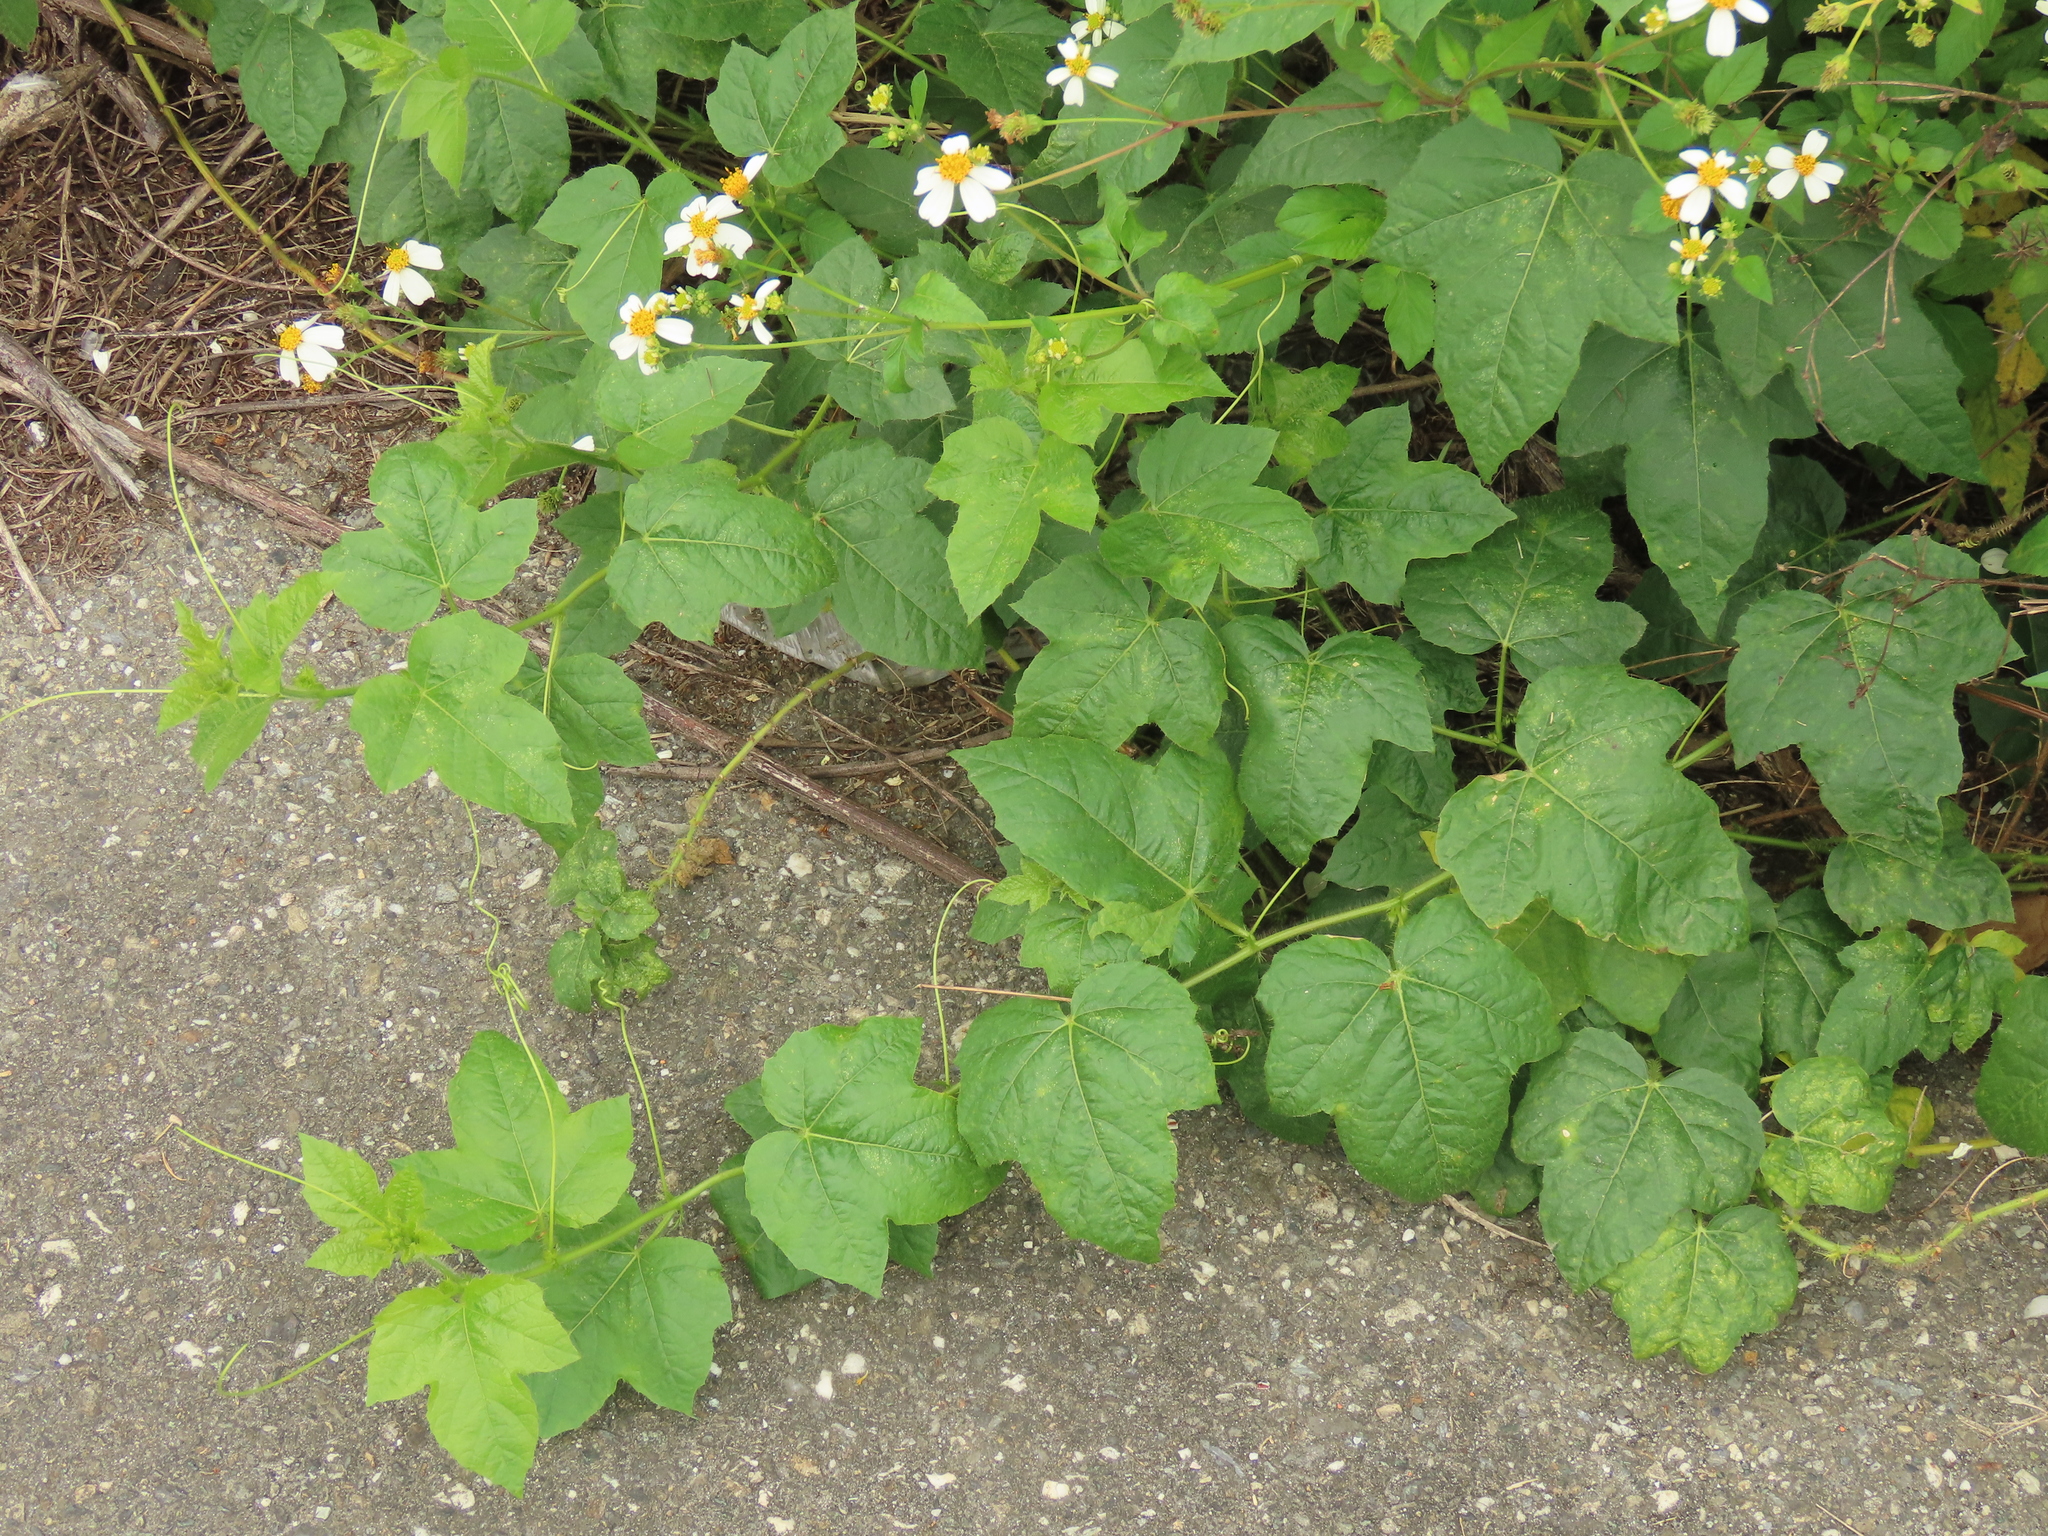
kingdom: Plantae
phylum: Tracheophyta
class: Magnoliopsida
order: Malpighiales
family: Passifloraceae
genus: Passiflora
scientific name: Passiflora vesicaria
